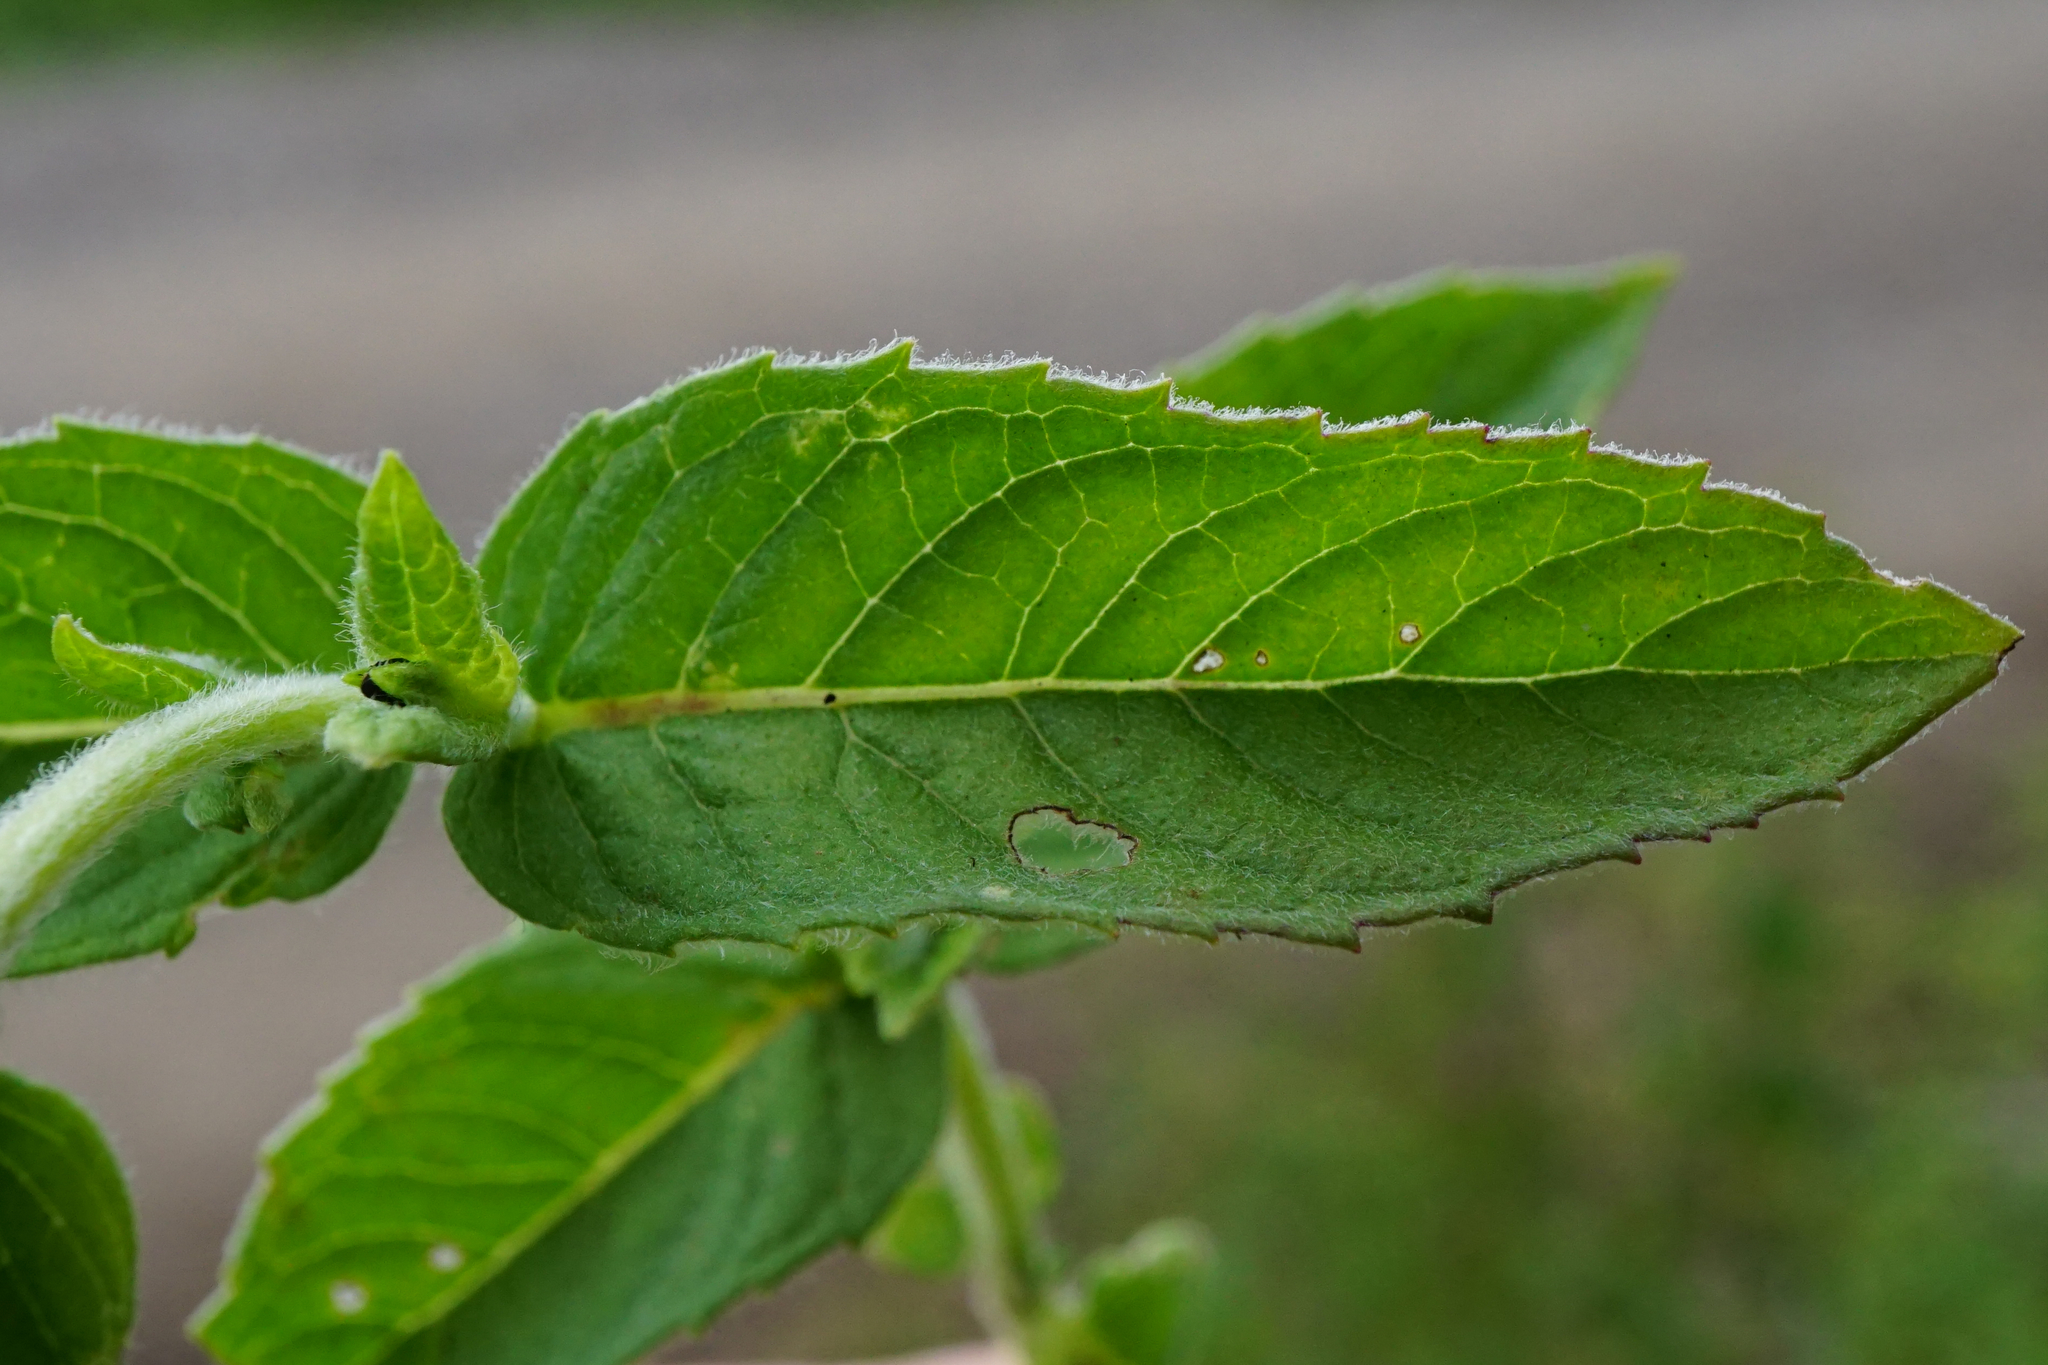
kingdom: Plantae
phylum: Tracheophyta
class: Magnoliopsida
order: Lamiales
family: Lamiaceae
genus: Mentha
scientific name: Mentha longifolia
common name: Horse mint
